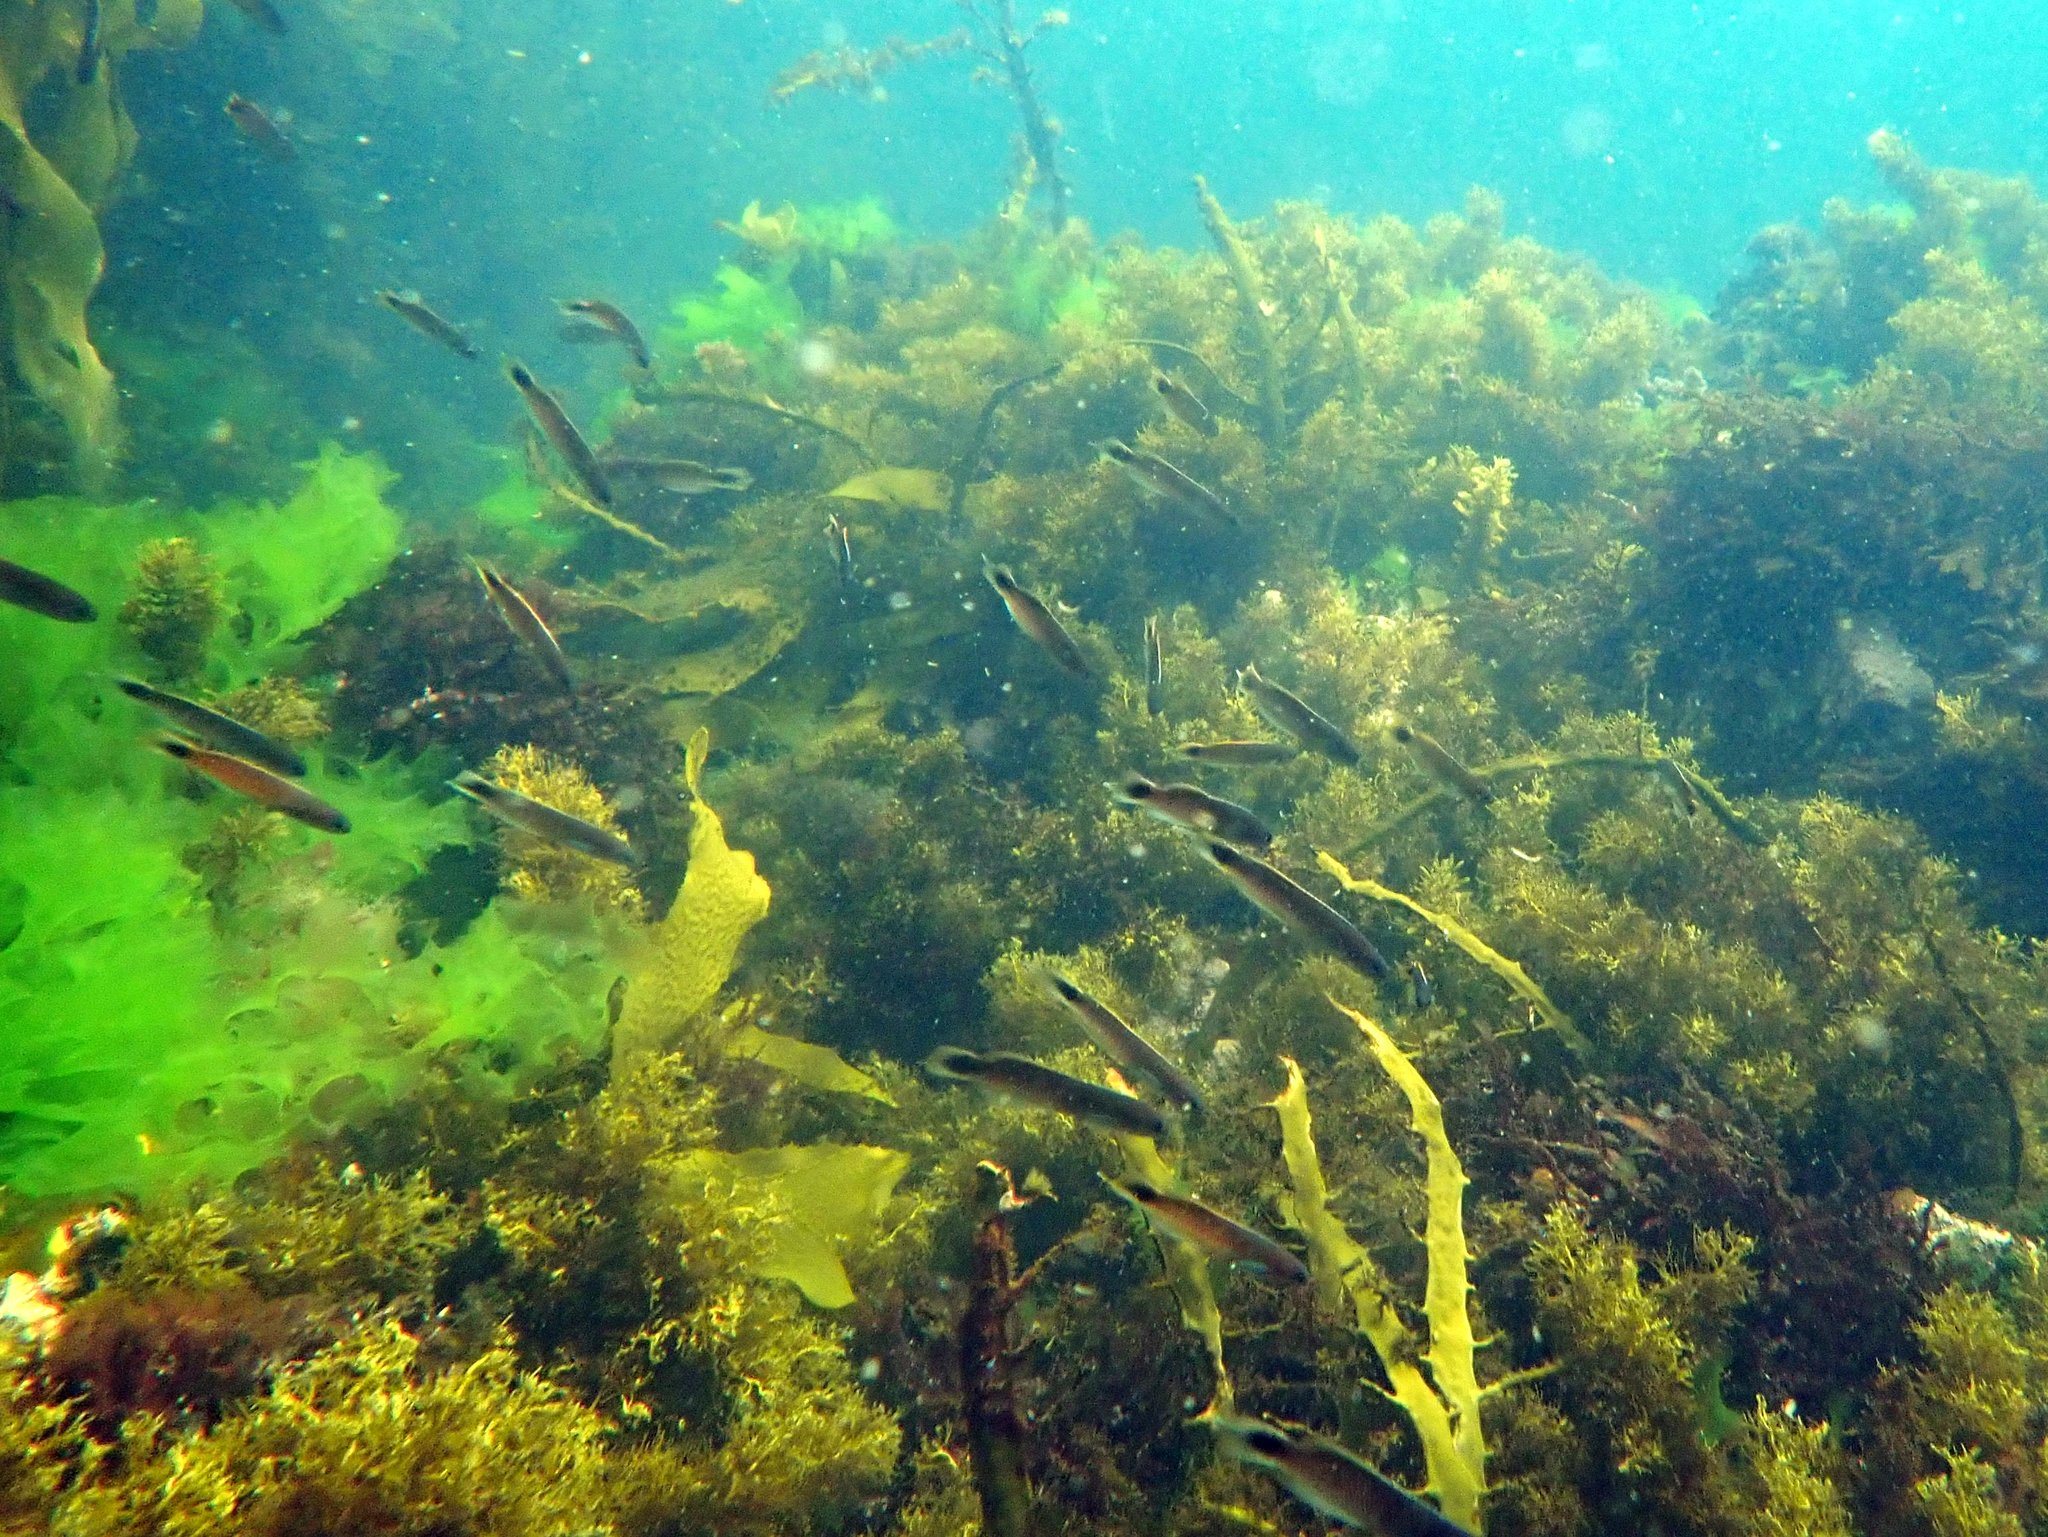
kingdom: Animalia
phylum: Chordata
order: Perciformes
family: Plesiopidae
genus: Trachinops
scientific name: Trachinops caudimaculatus
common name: Blotched-tailed trachinops
